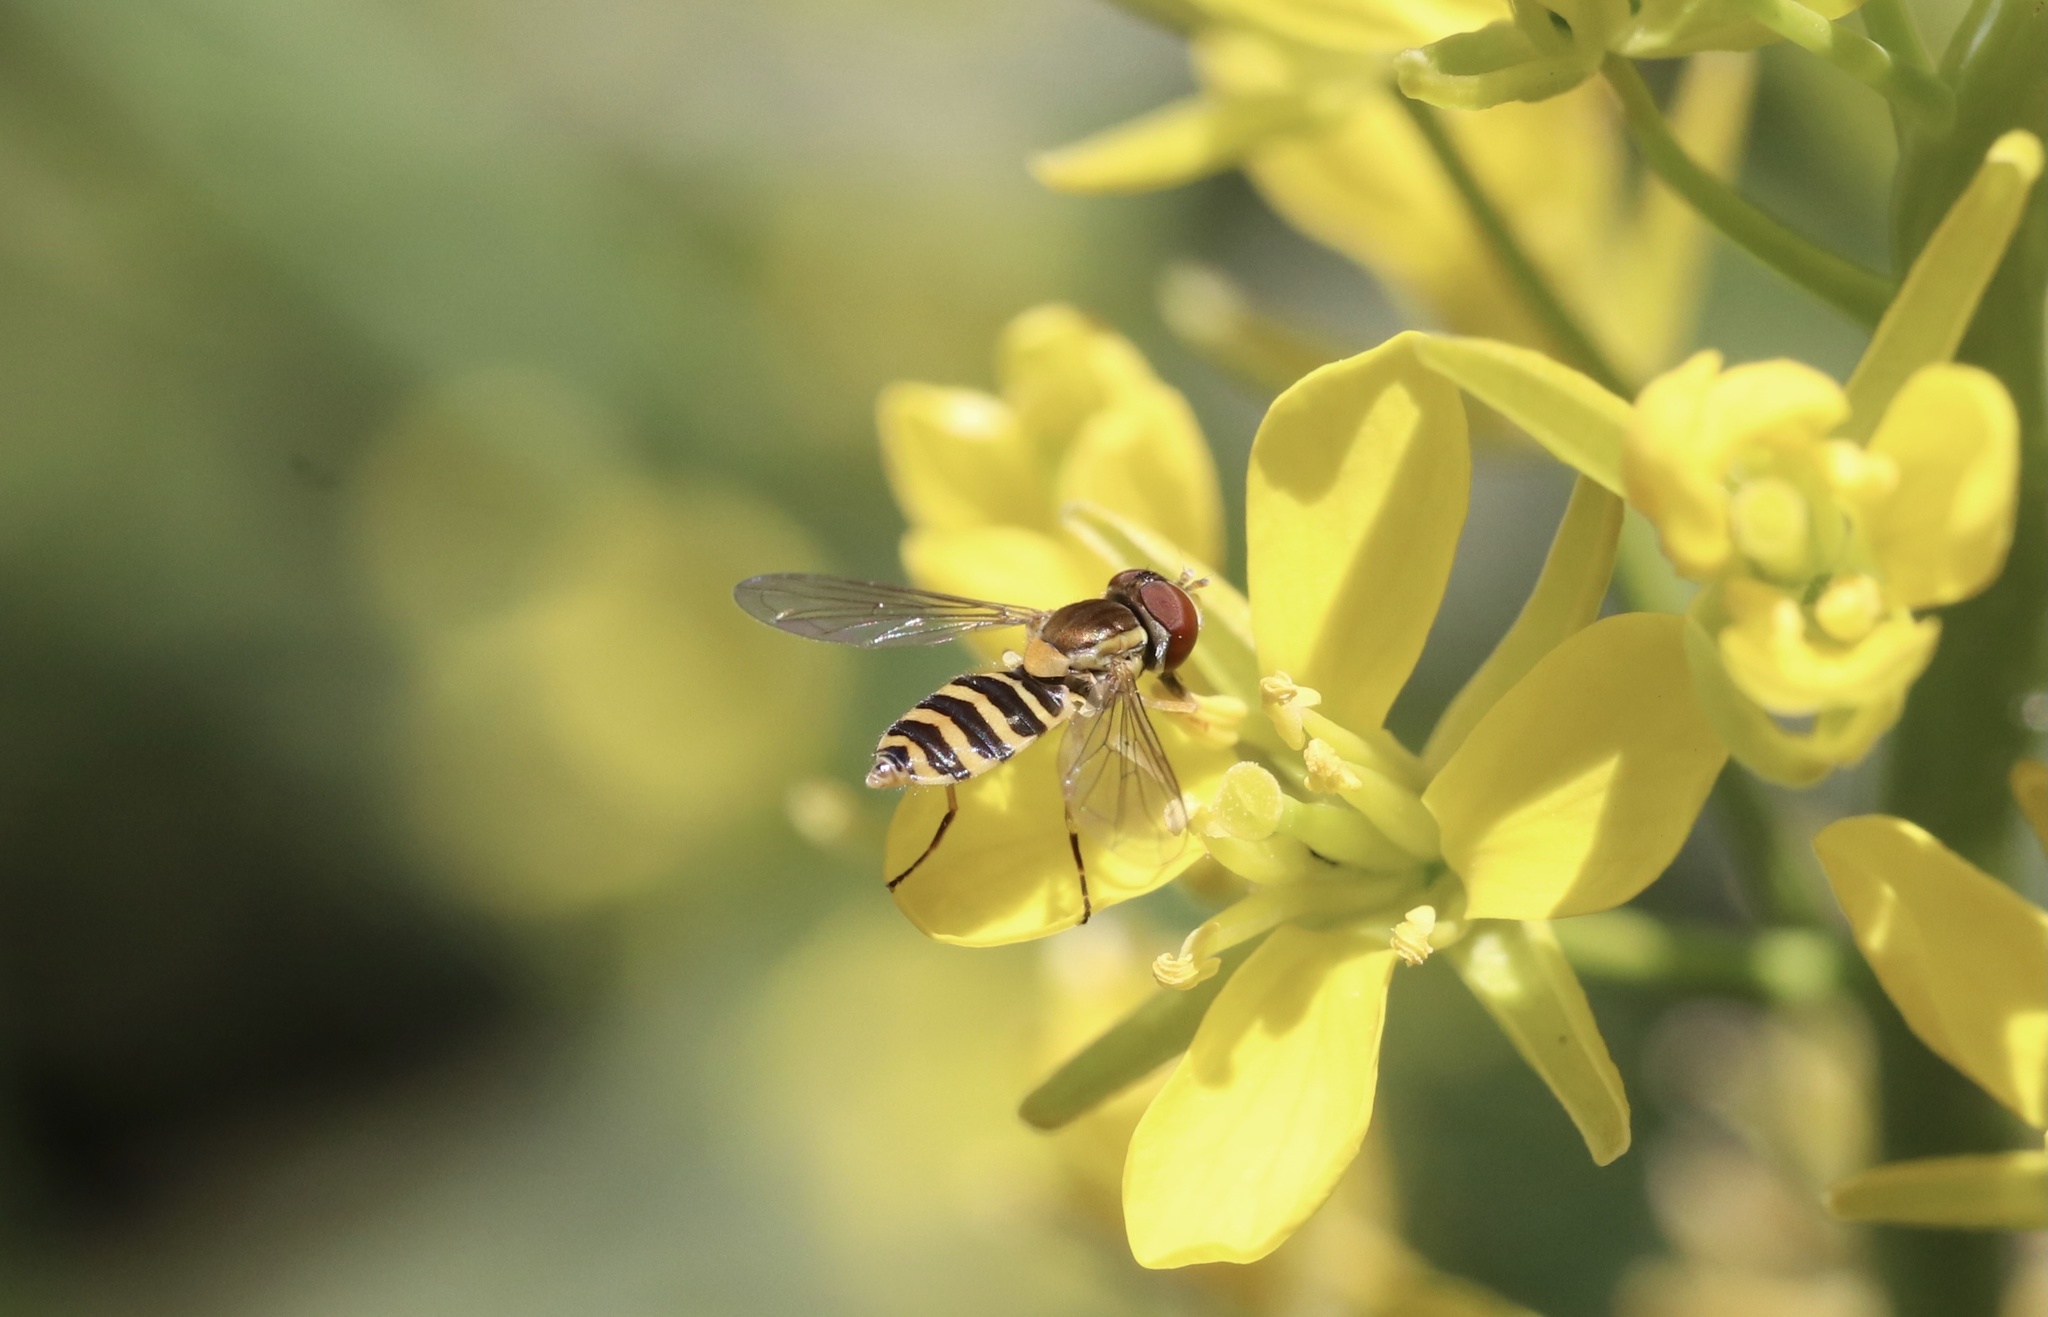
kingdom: Animalia
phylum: Arthropoda
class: Insecta
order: Diptera
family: Syrphidae
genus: Toxomerus
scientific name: Toxomerus calceolatus
